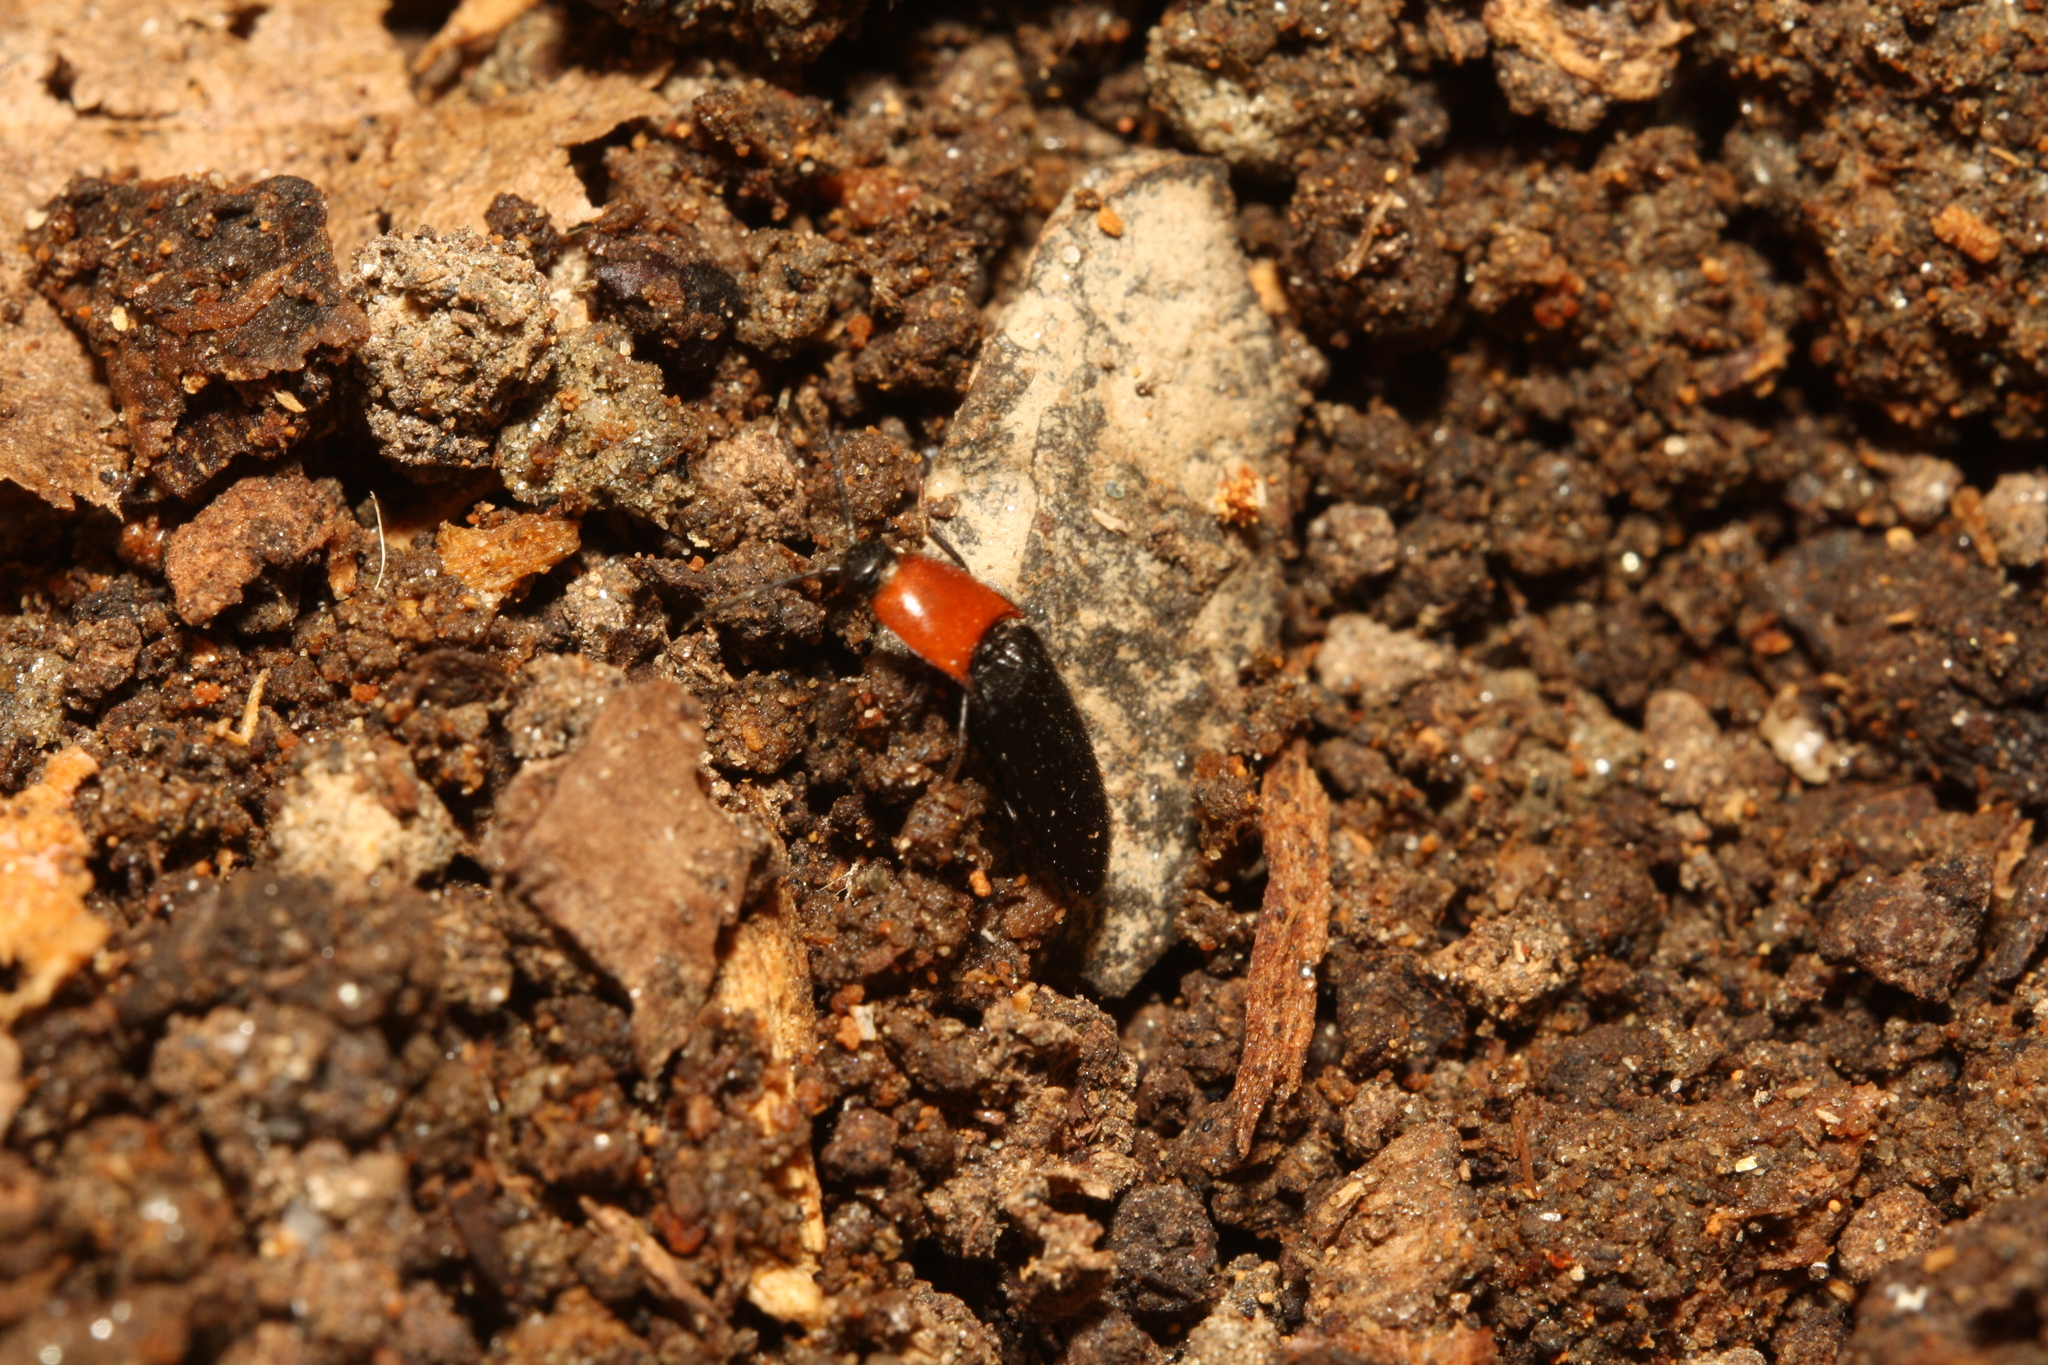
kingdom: Animalia
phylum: Arthropoda
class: Insecta
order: Coleoptera
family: Elateridae
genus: Ischnodes
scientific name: Ischnodes sanguinicollis
